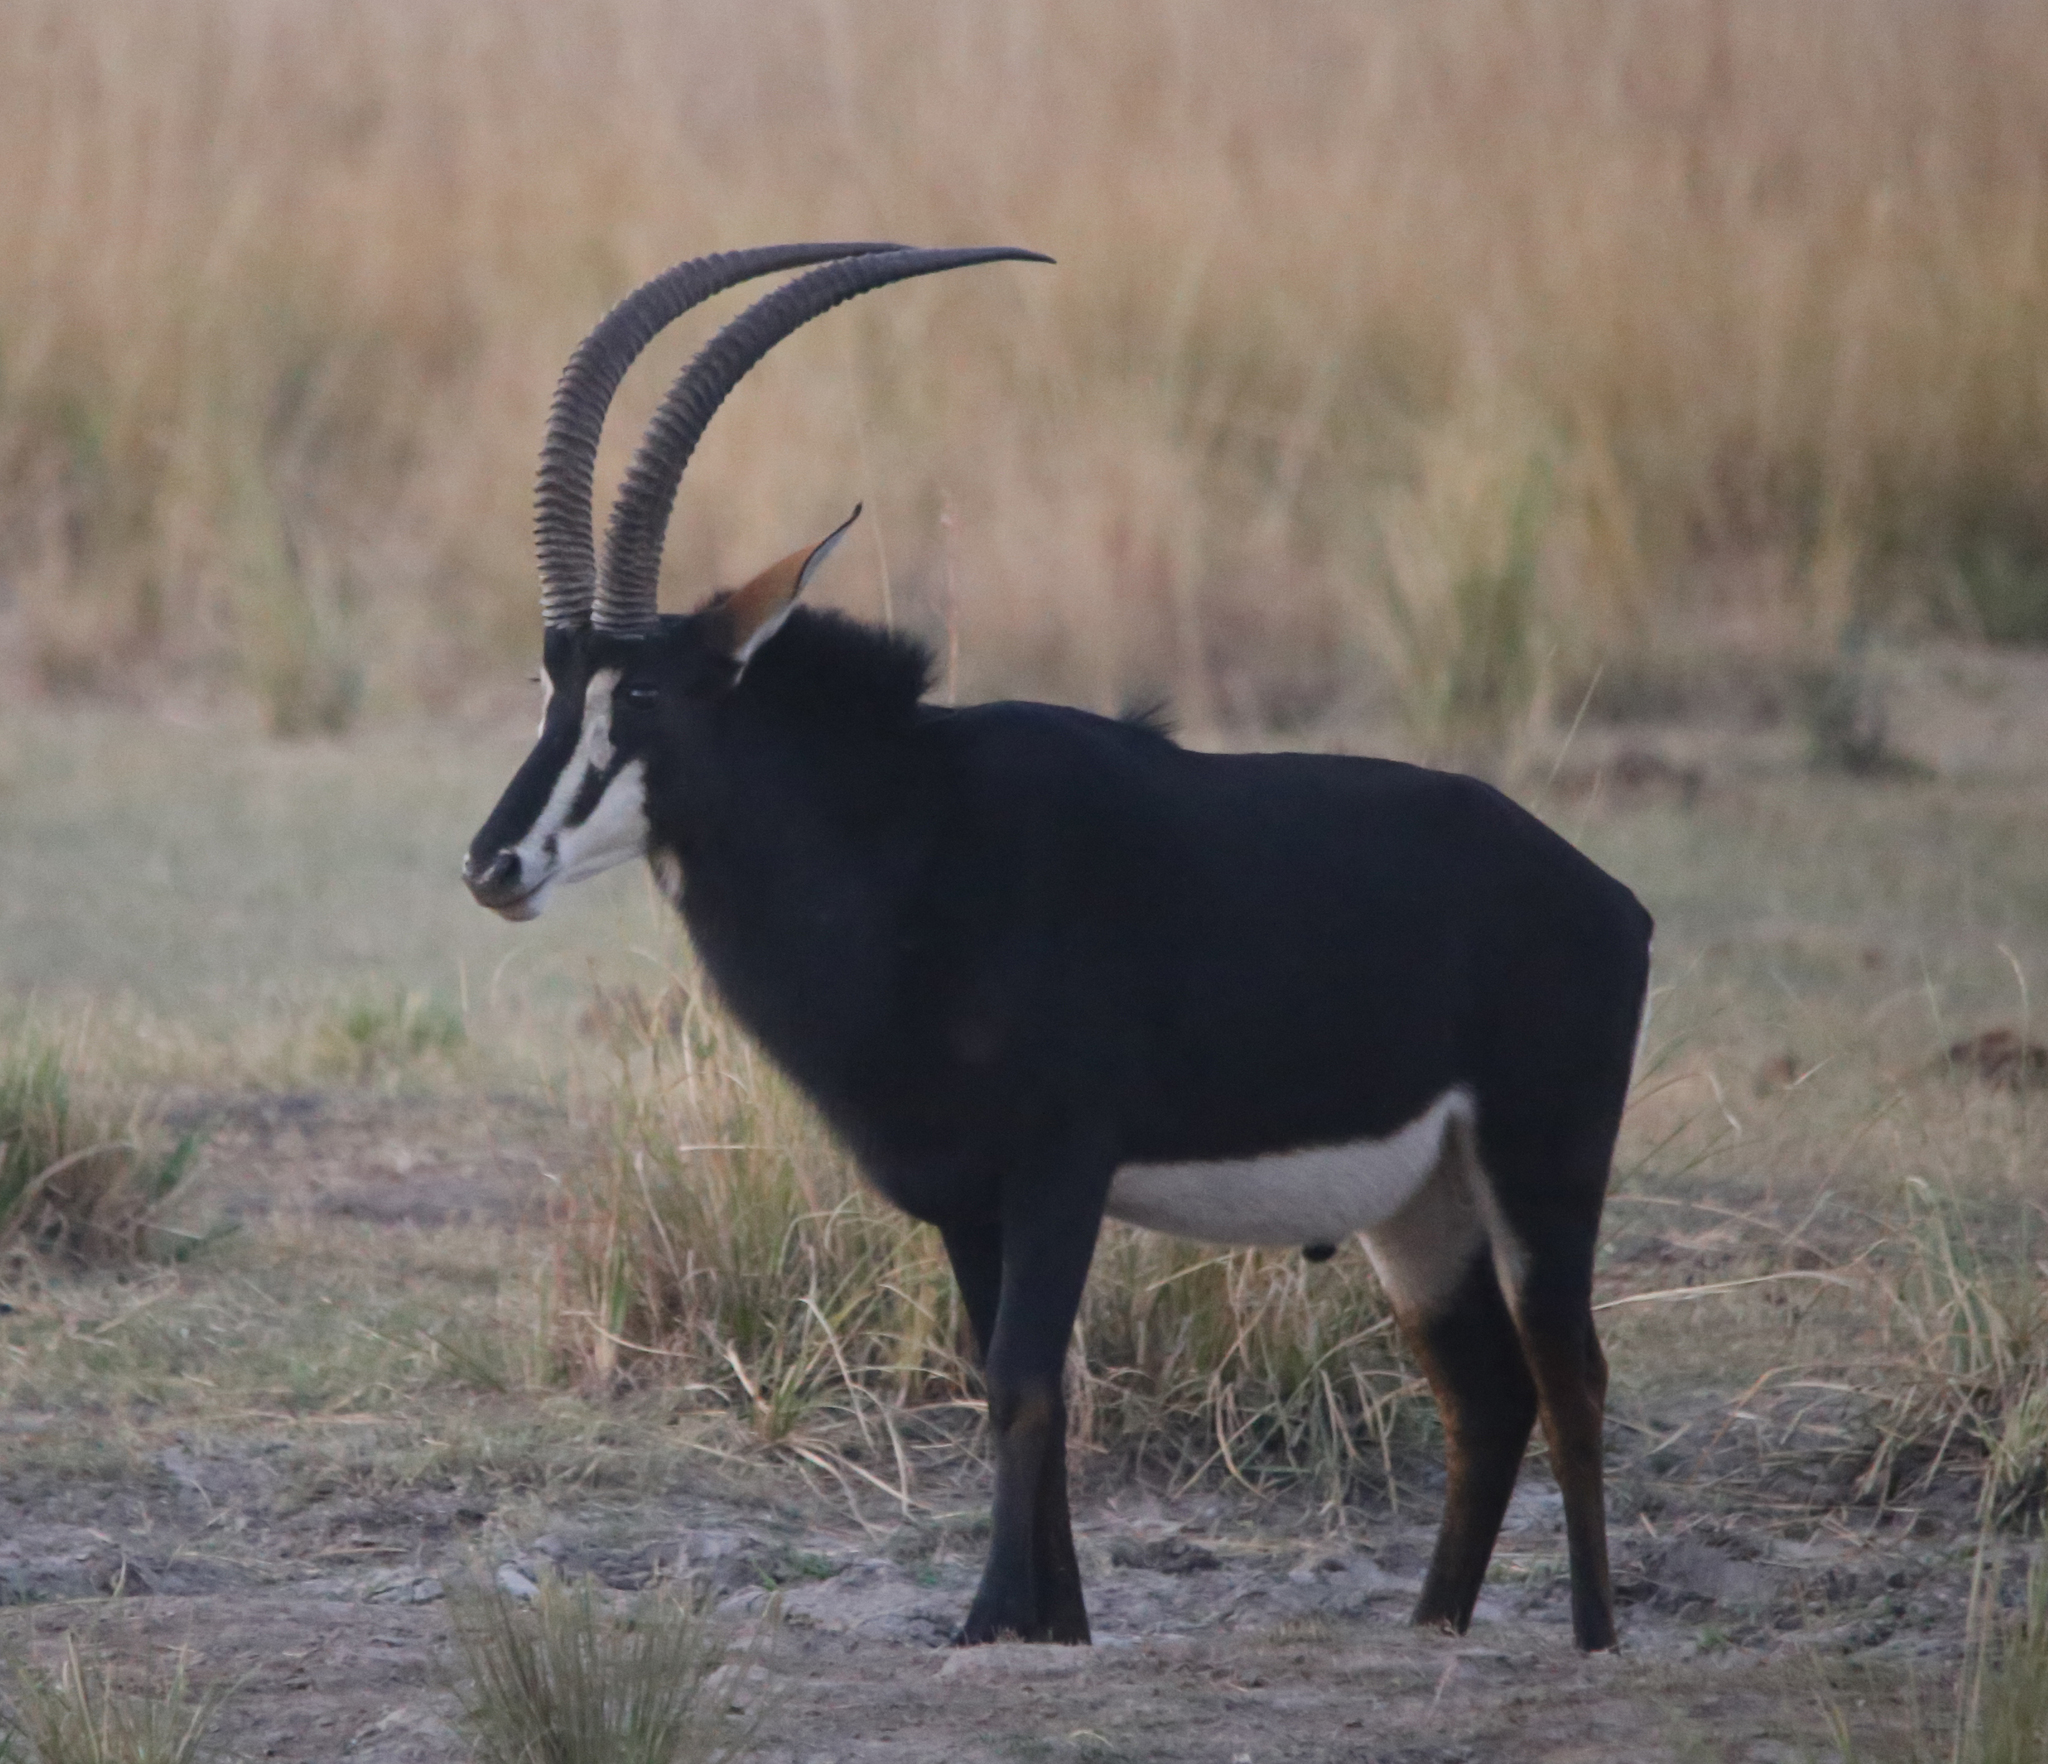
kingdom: Animalia
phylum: Chordata
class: Mammalia
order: Artiodactyla
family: Bovidae
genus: Hippotragus
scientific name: Hippotragus niger
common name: Sable antelope
